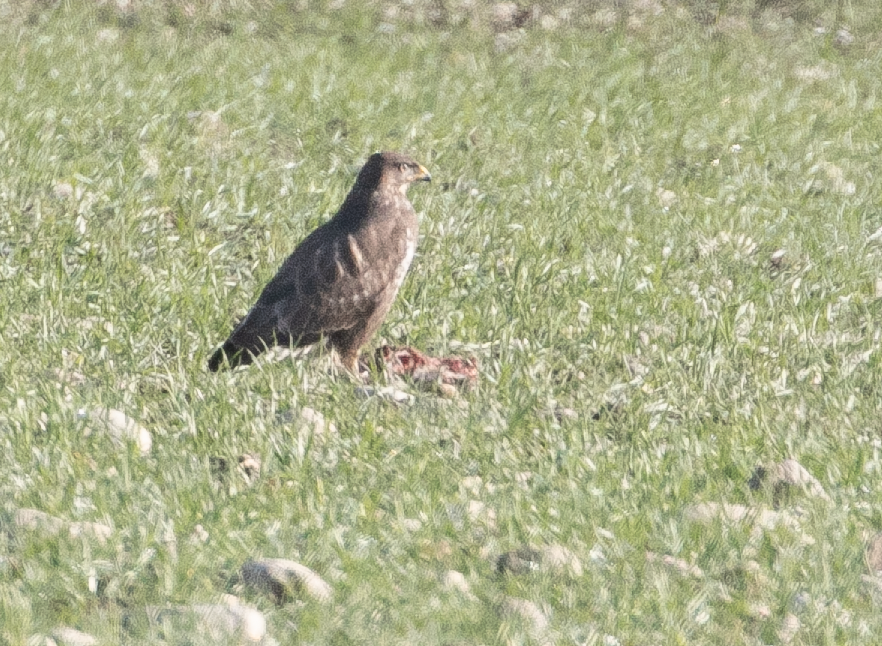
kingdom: Animalia
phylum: Chordata
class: Aves
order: Accipitriformes
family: Accipitridae
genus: Buteo
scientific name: Buteo buteo
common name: Common buzzard
